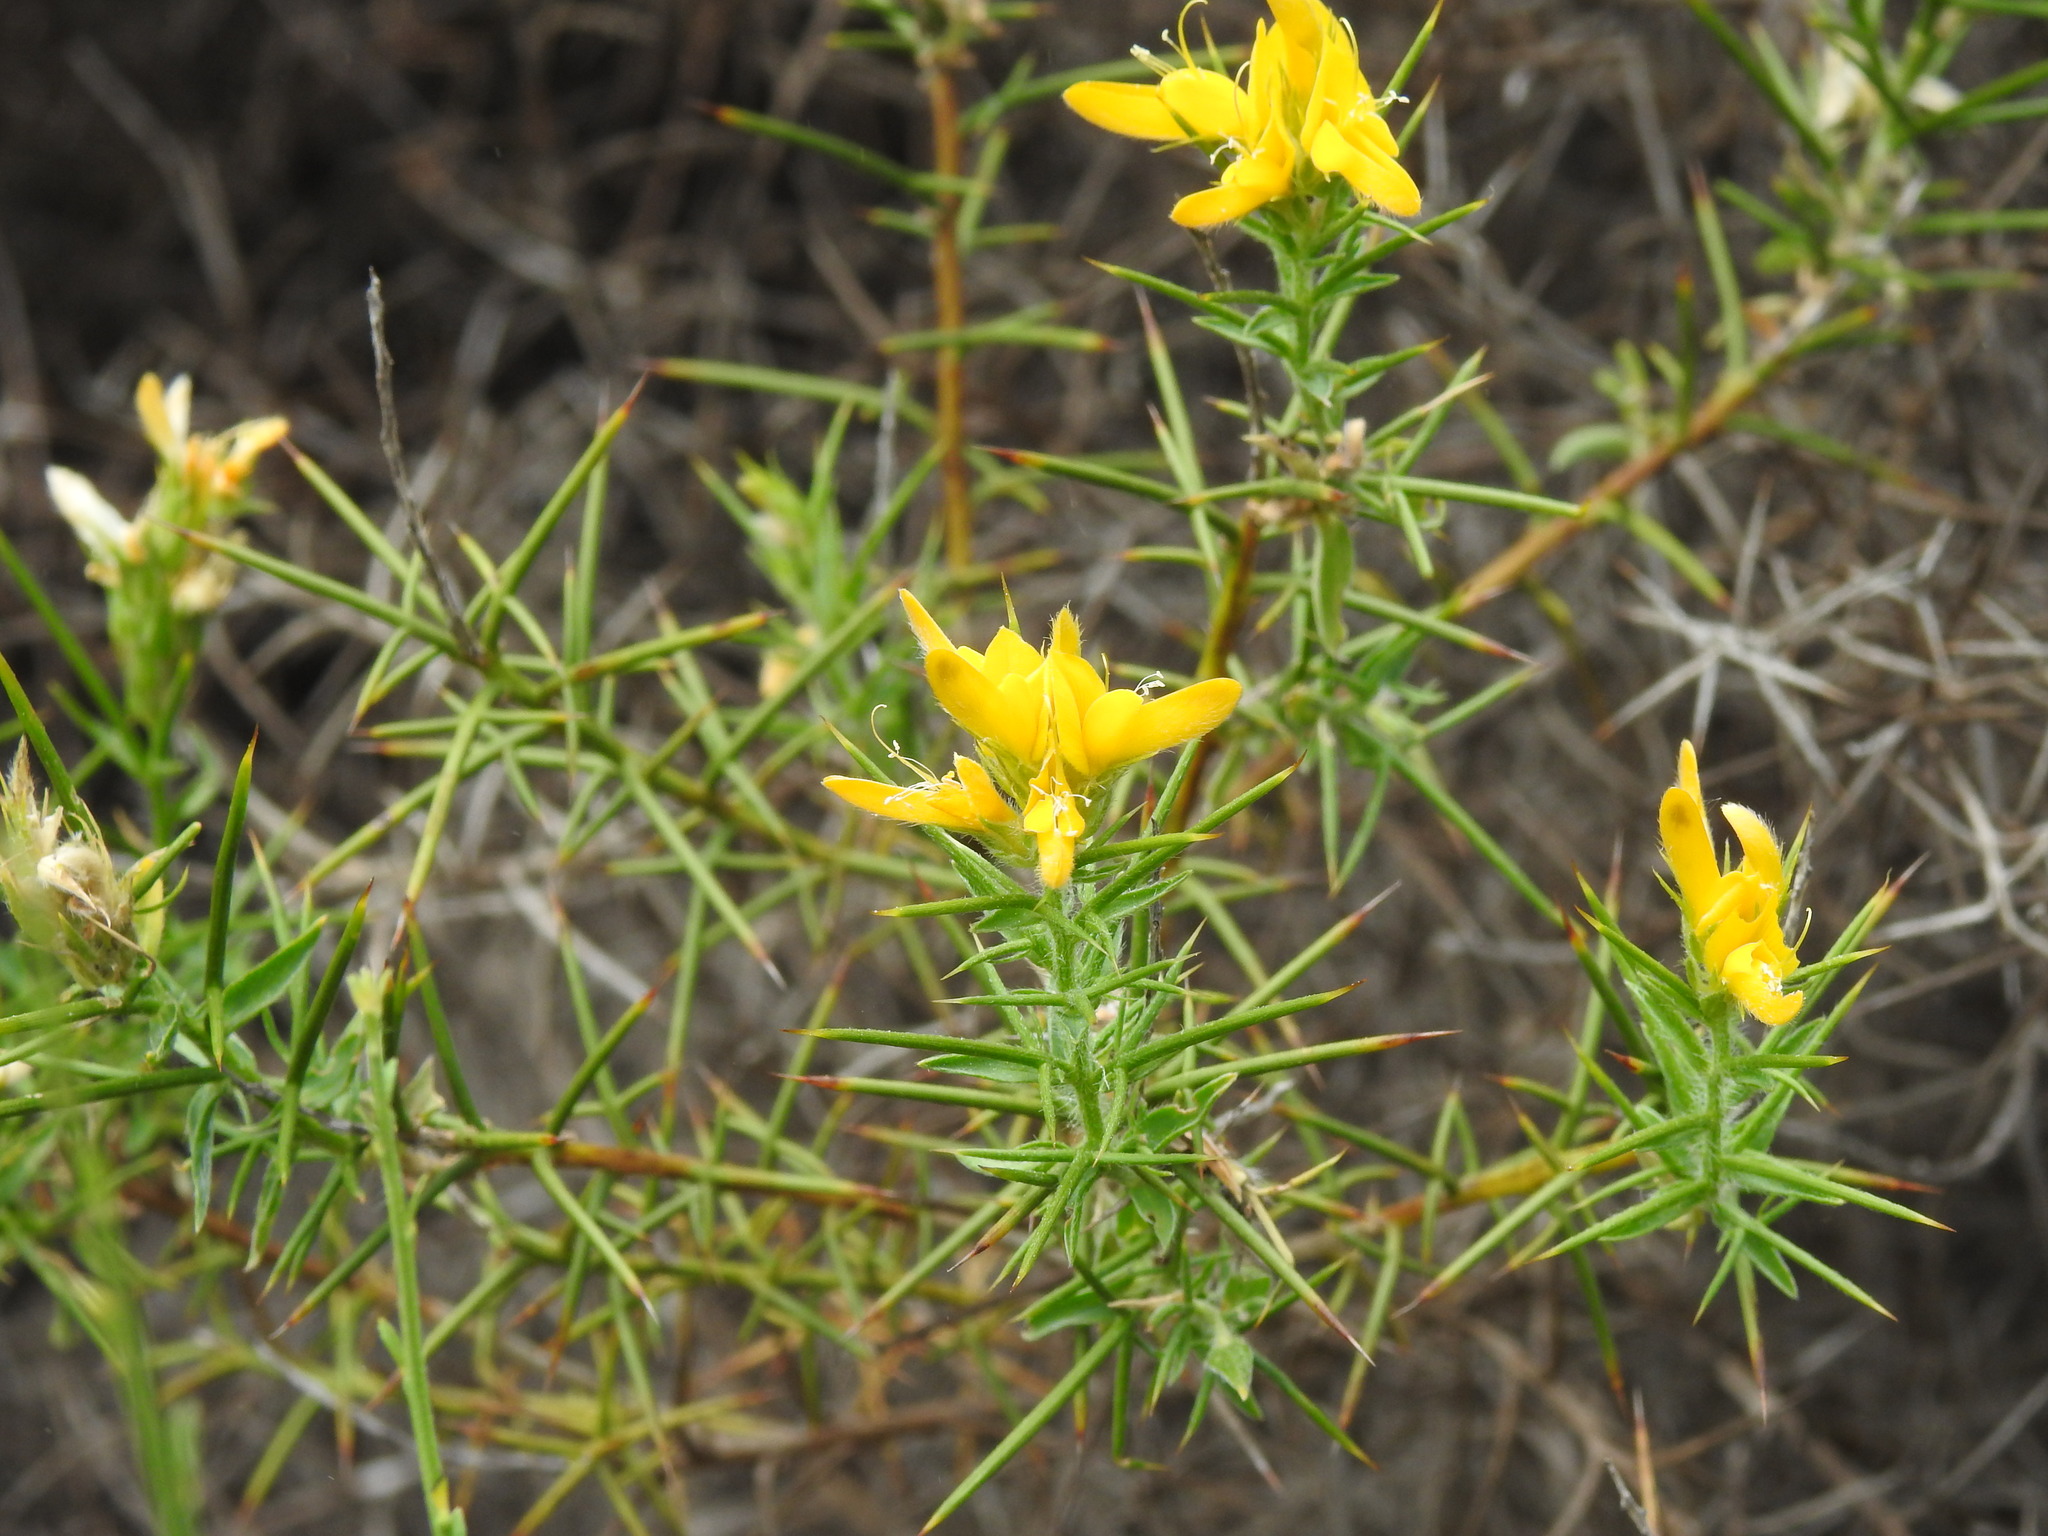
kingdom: Plantae
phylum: Tracheophyta
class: Magnoliopsida
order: Fabales
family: Fabaceae
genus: Genista
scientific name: Genista hirsuta
